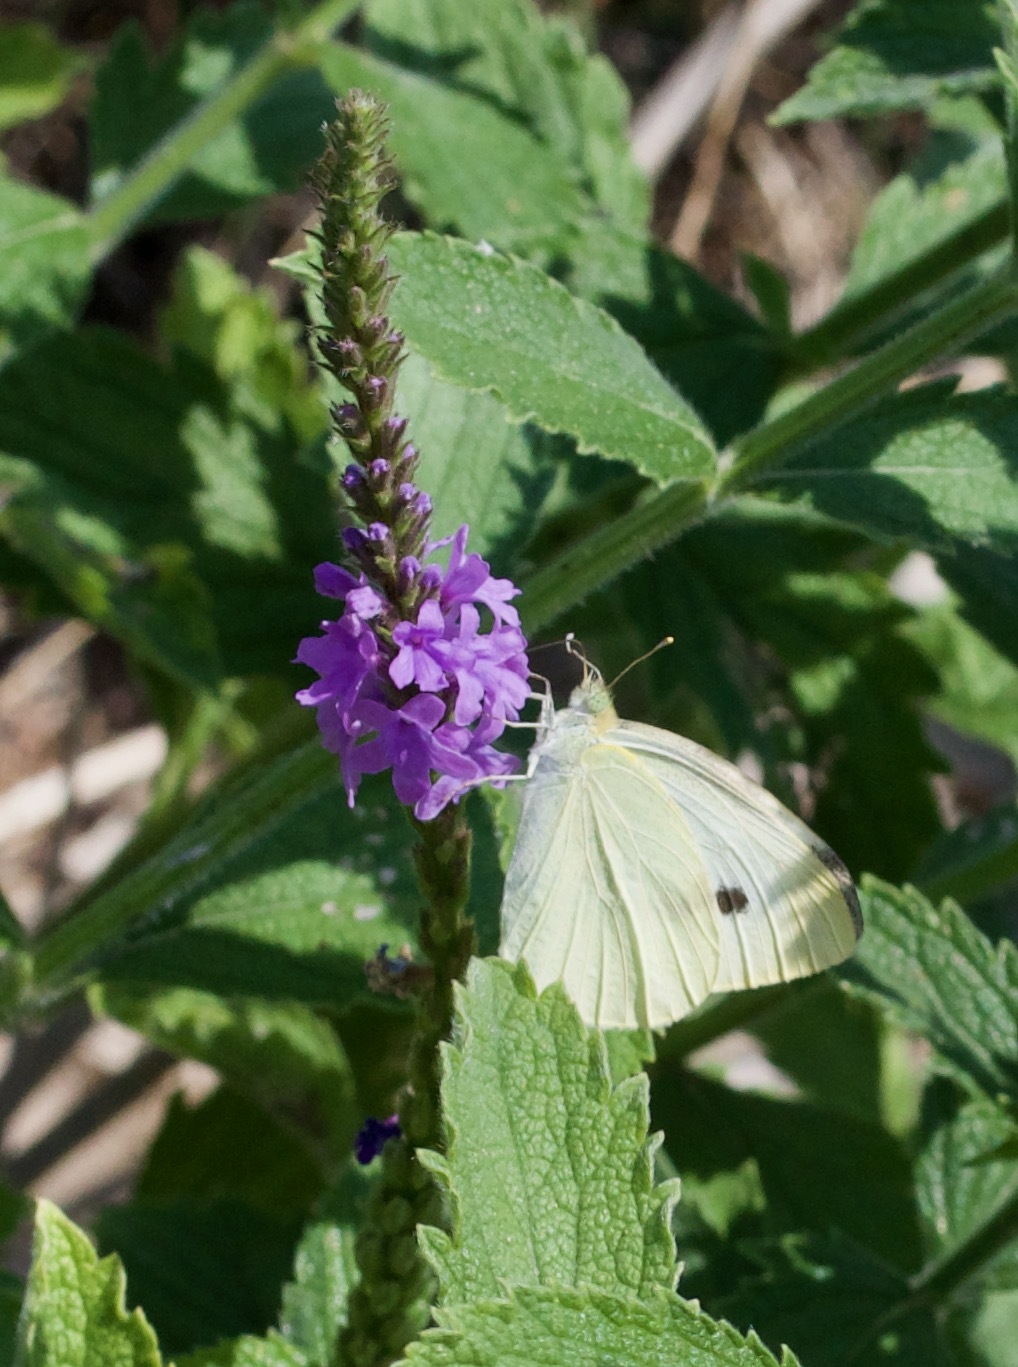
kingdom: Animalia
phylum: Arthropoda
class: Insecta
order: Lepidoptera
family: Pieridae
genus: Pieris
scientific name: Pieris rapae
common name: Small white
